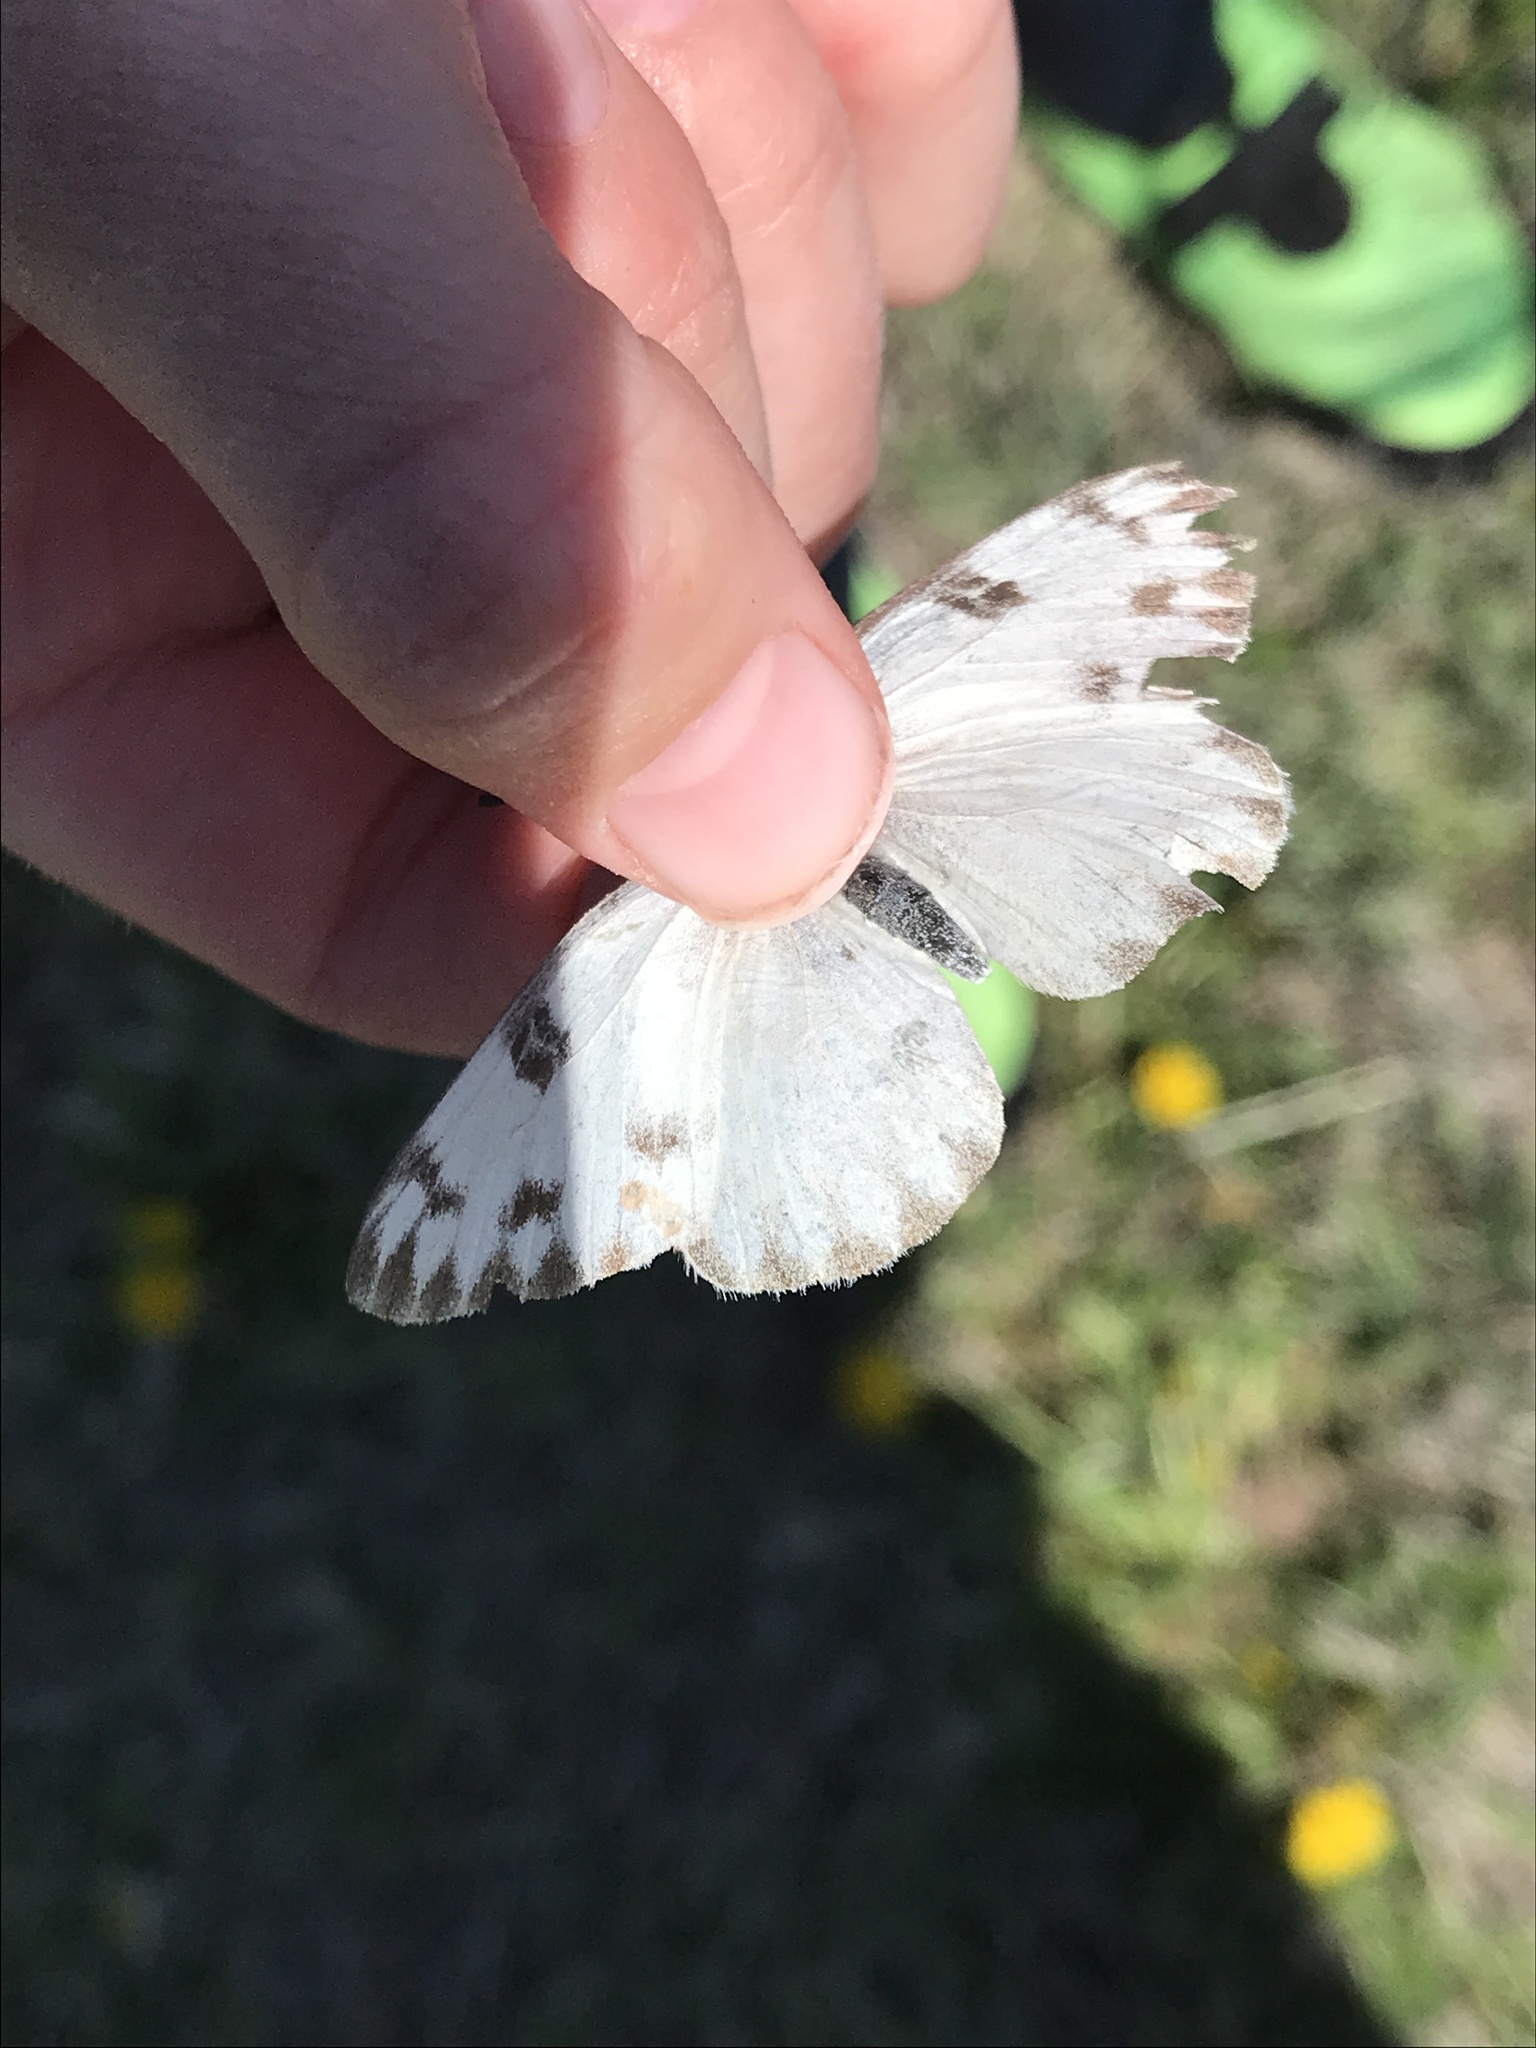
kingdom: Animalia
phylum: Arthropoda
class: Insecta
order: Lepidoptera
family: Pieridae
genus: Pontia
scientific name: Pontia protodice
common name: Checkered white
